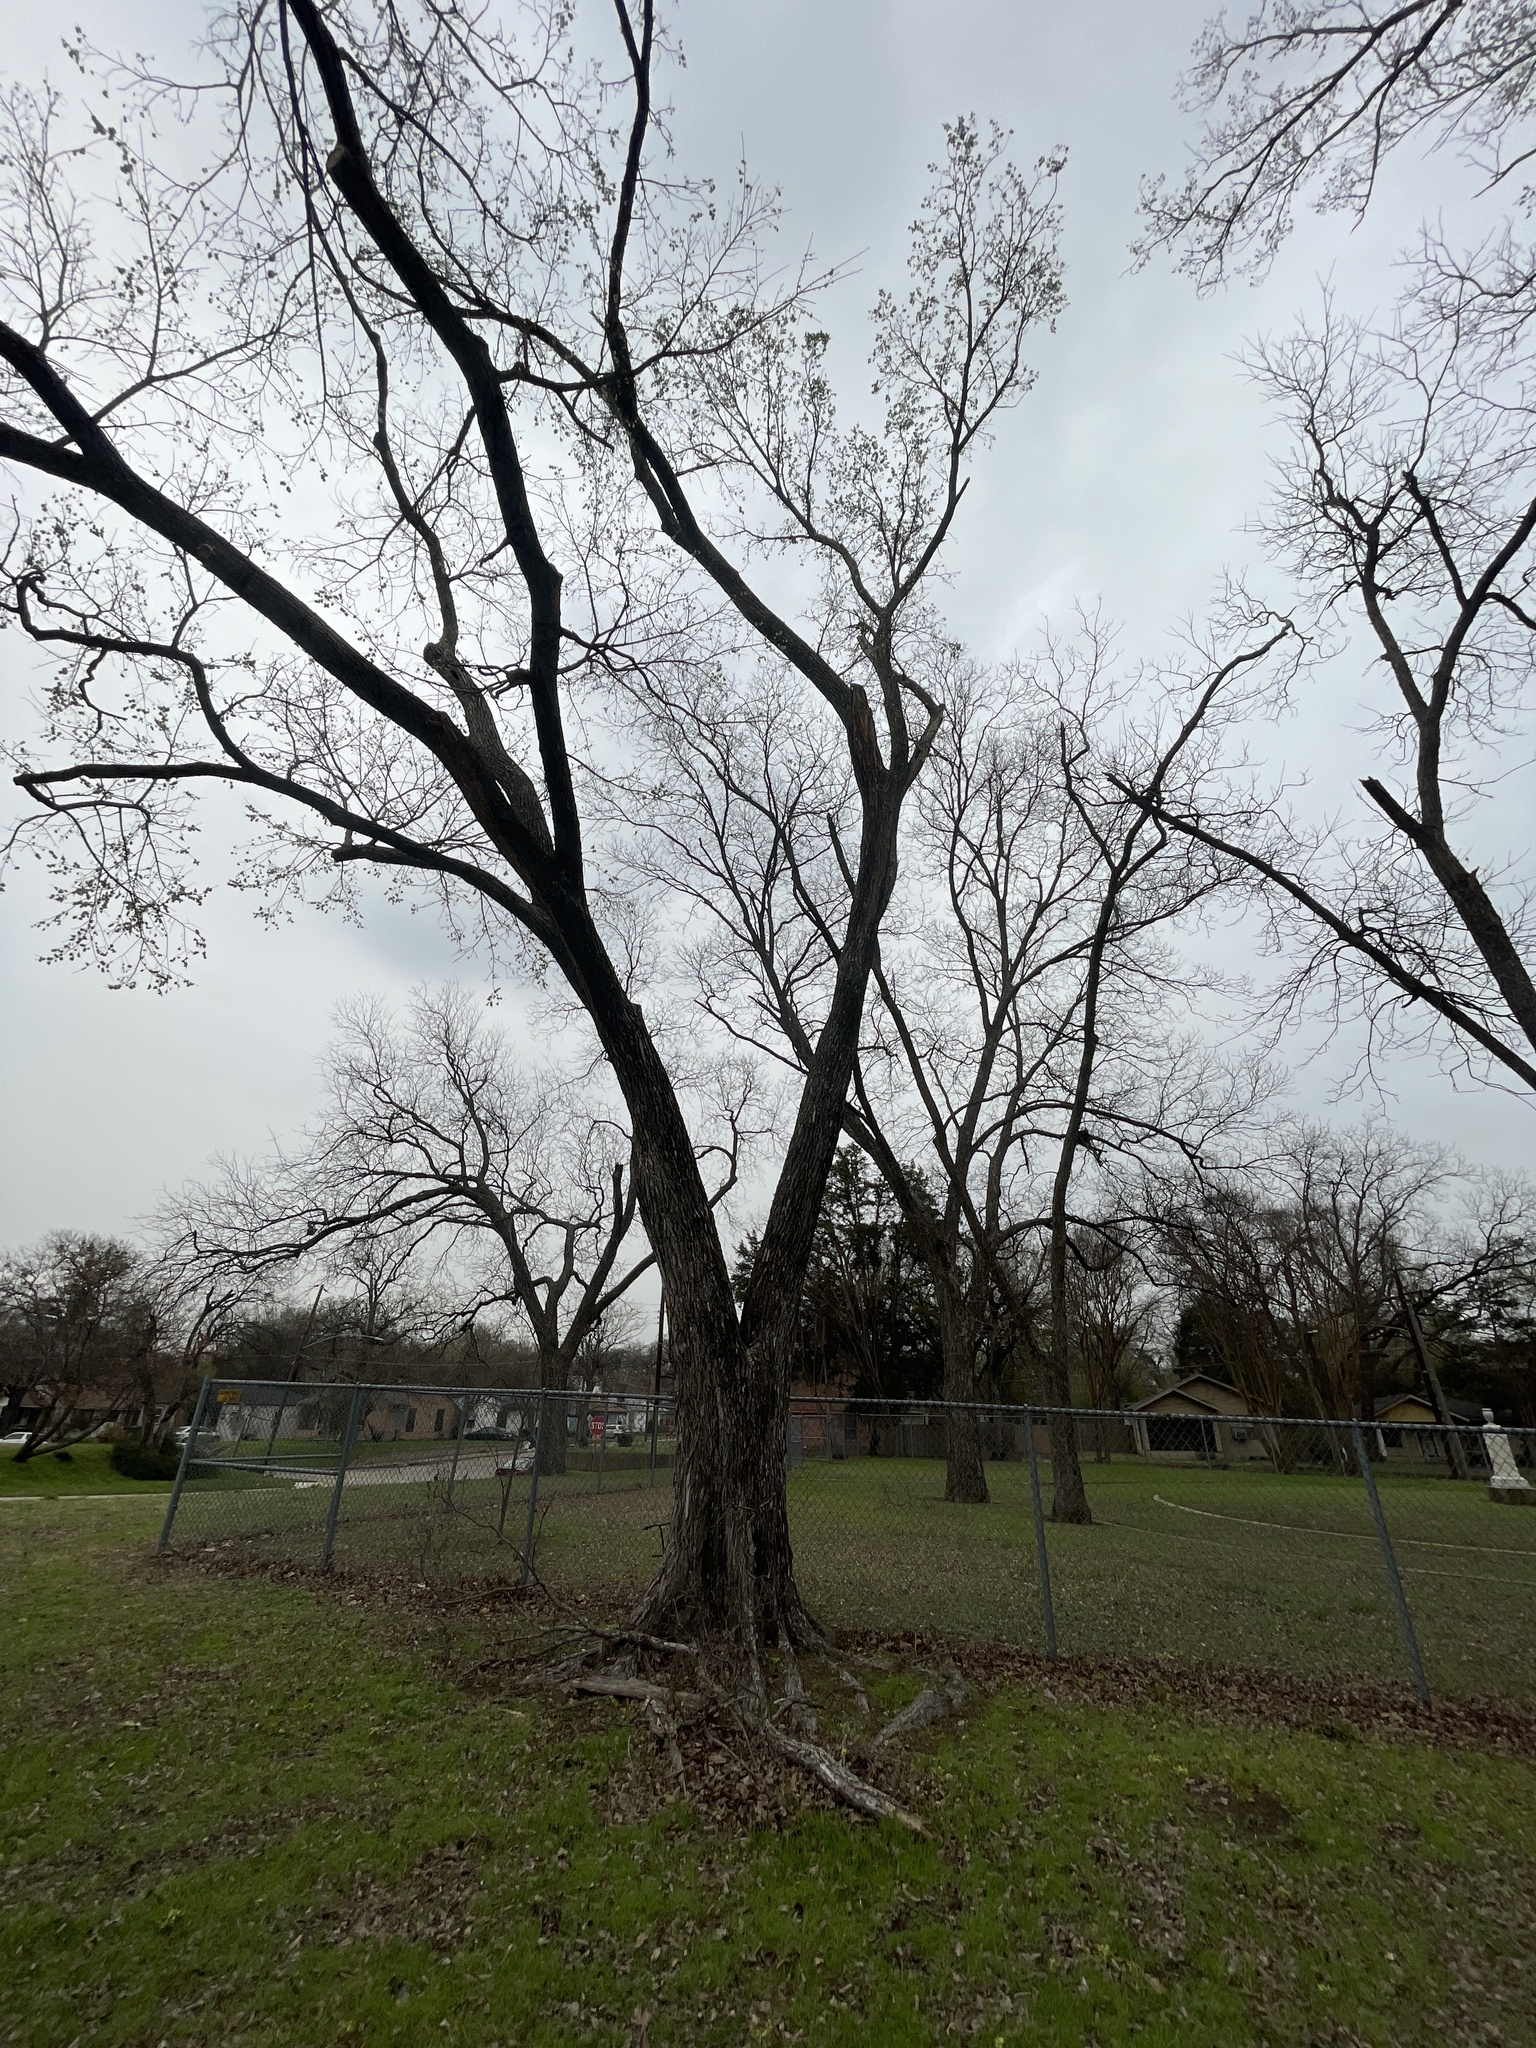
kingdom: Plantae
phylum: Tracheophyta
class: Magnoliopsida
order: Rosales
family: Ulmaceae
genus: Ulmus
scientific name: Ulmus americana
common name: American elm
